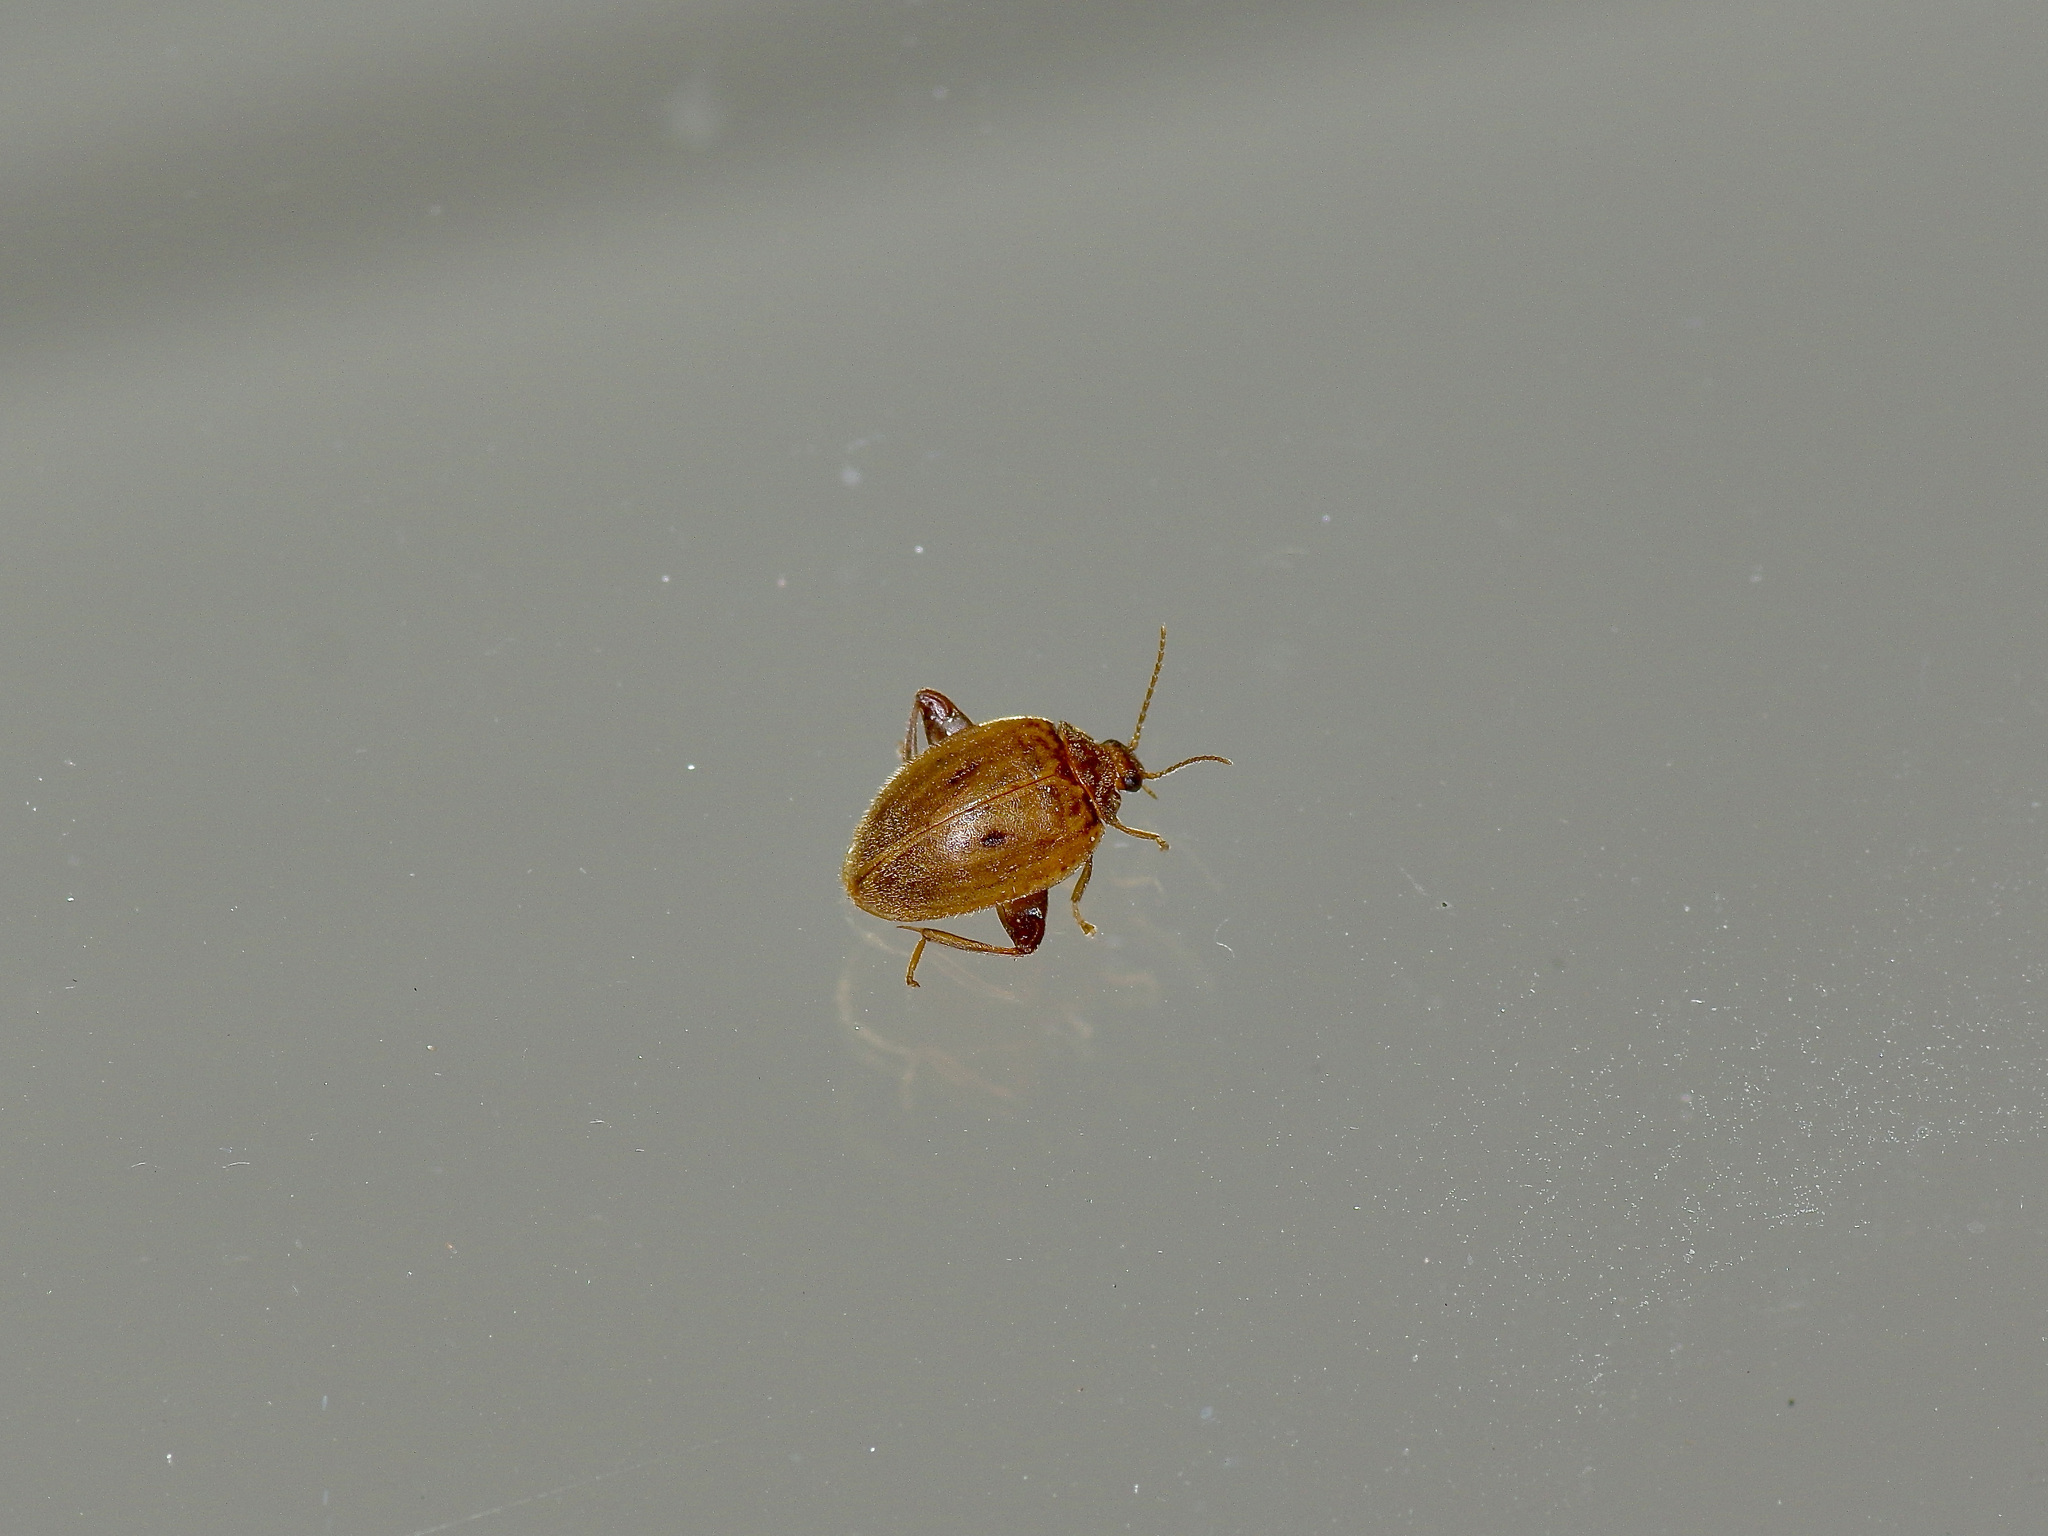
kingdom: Animalia
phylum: Arthropoda
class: Insecta
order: Coleoptera
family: Scirtidae
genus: Ora
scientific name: Ora discoidea
